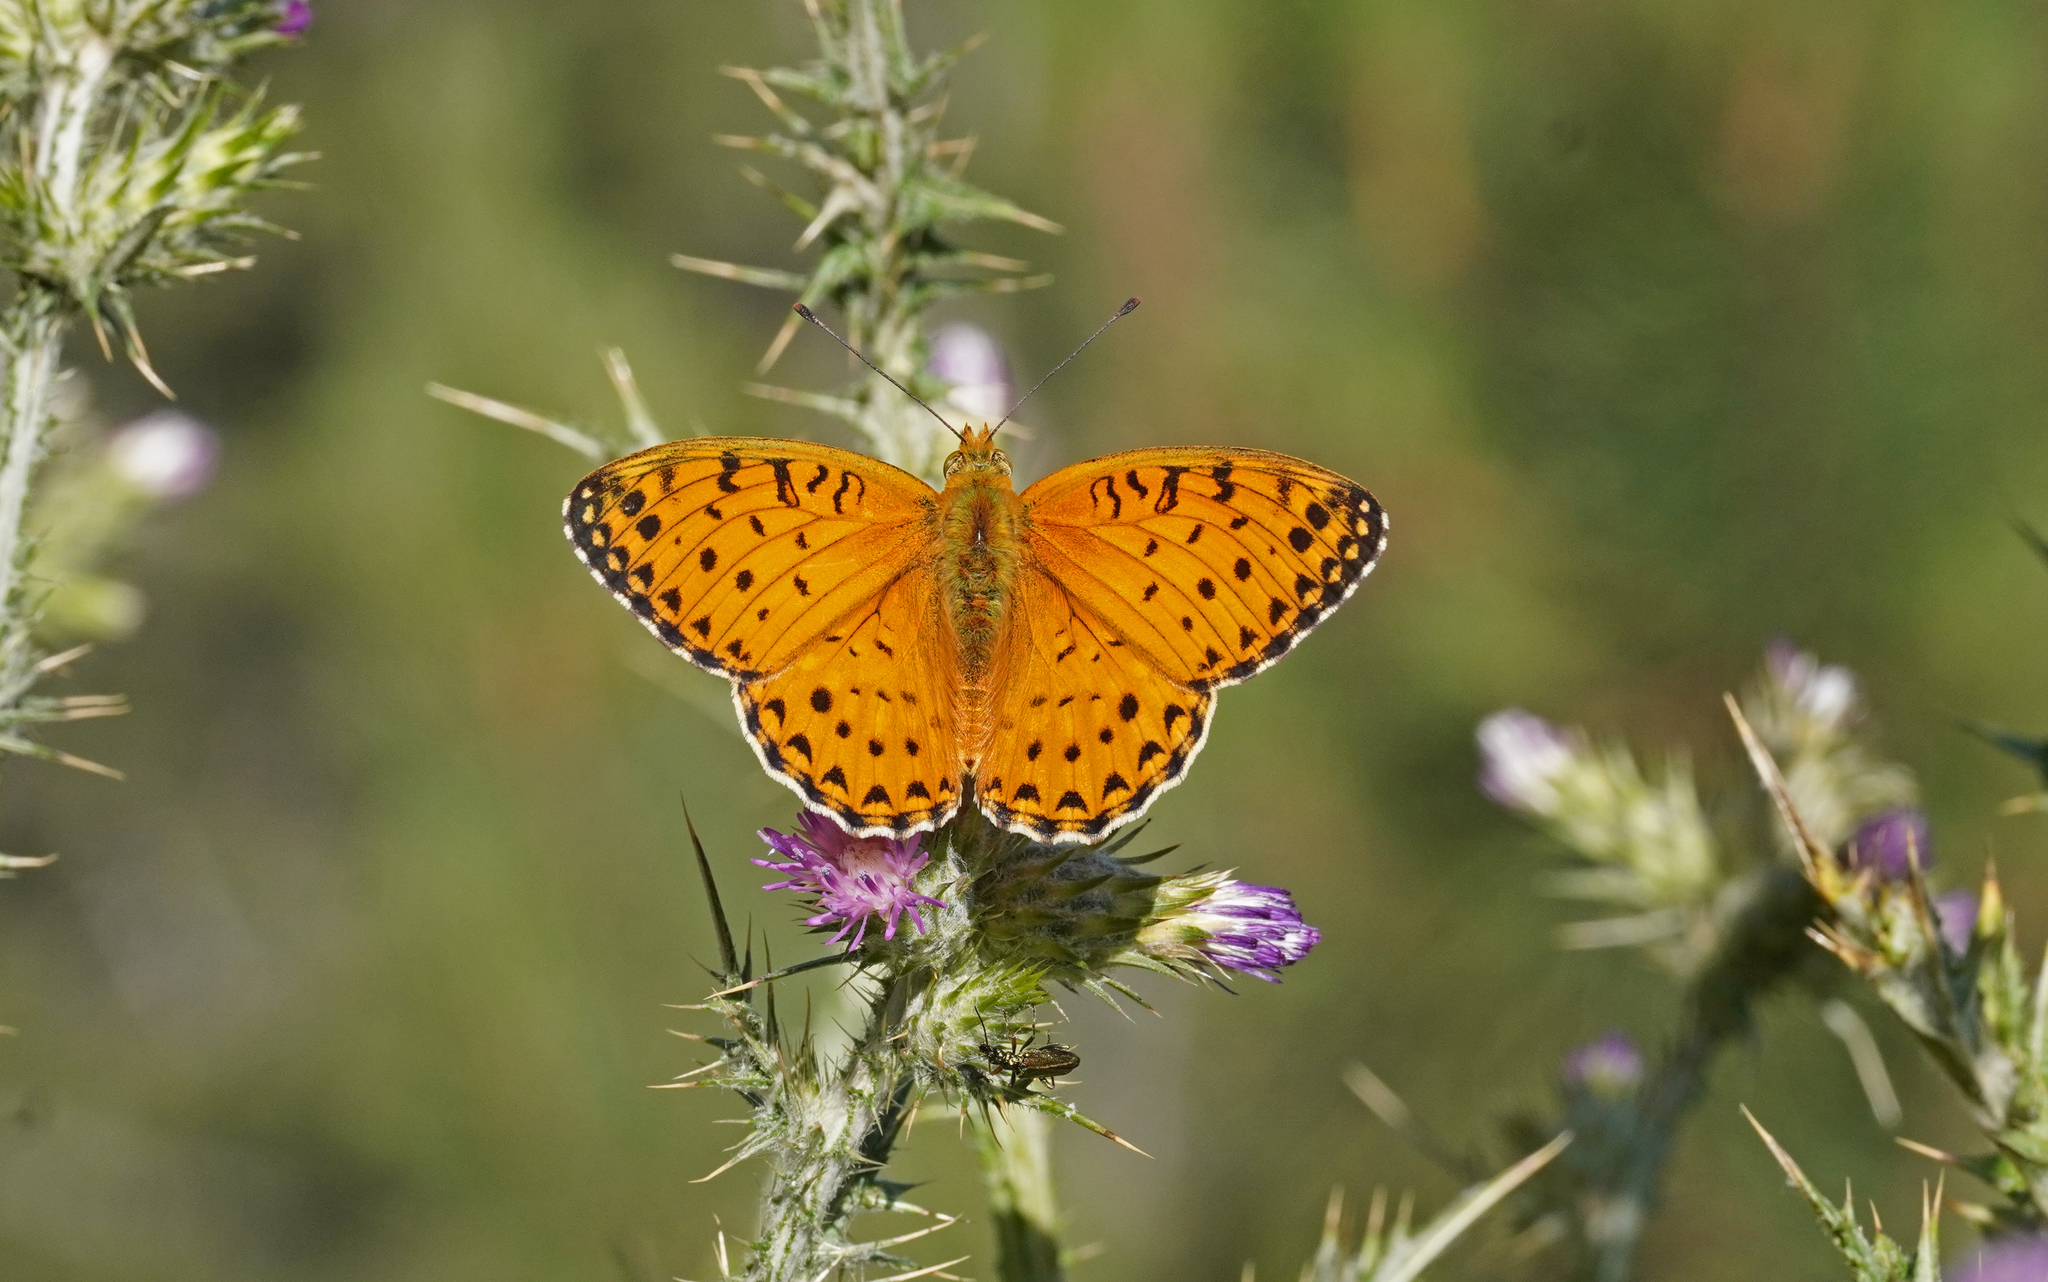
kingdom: Animalia
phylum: Arthropoda
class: Insecta
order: Lepidoptera
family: Nymphalidae
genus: Fabriciana
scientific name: Fabriciana niobe
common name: Niobe fritillary
